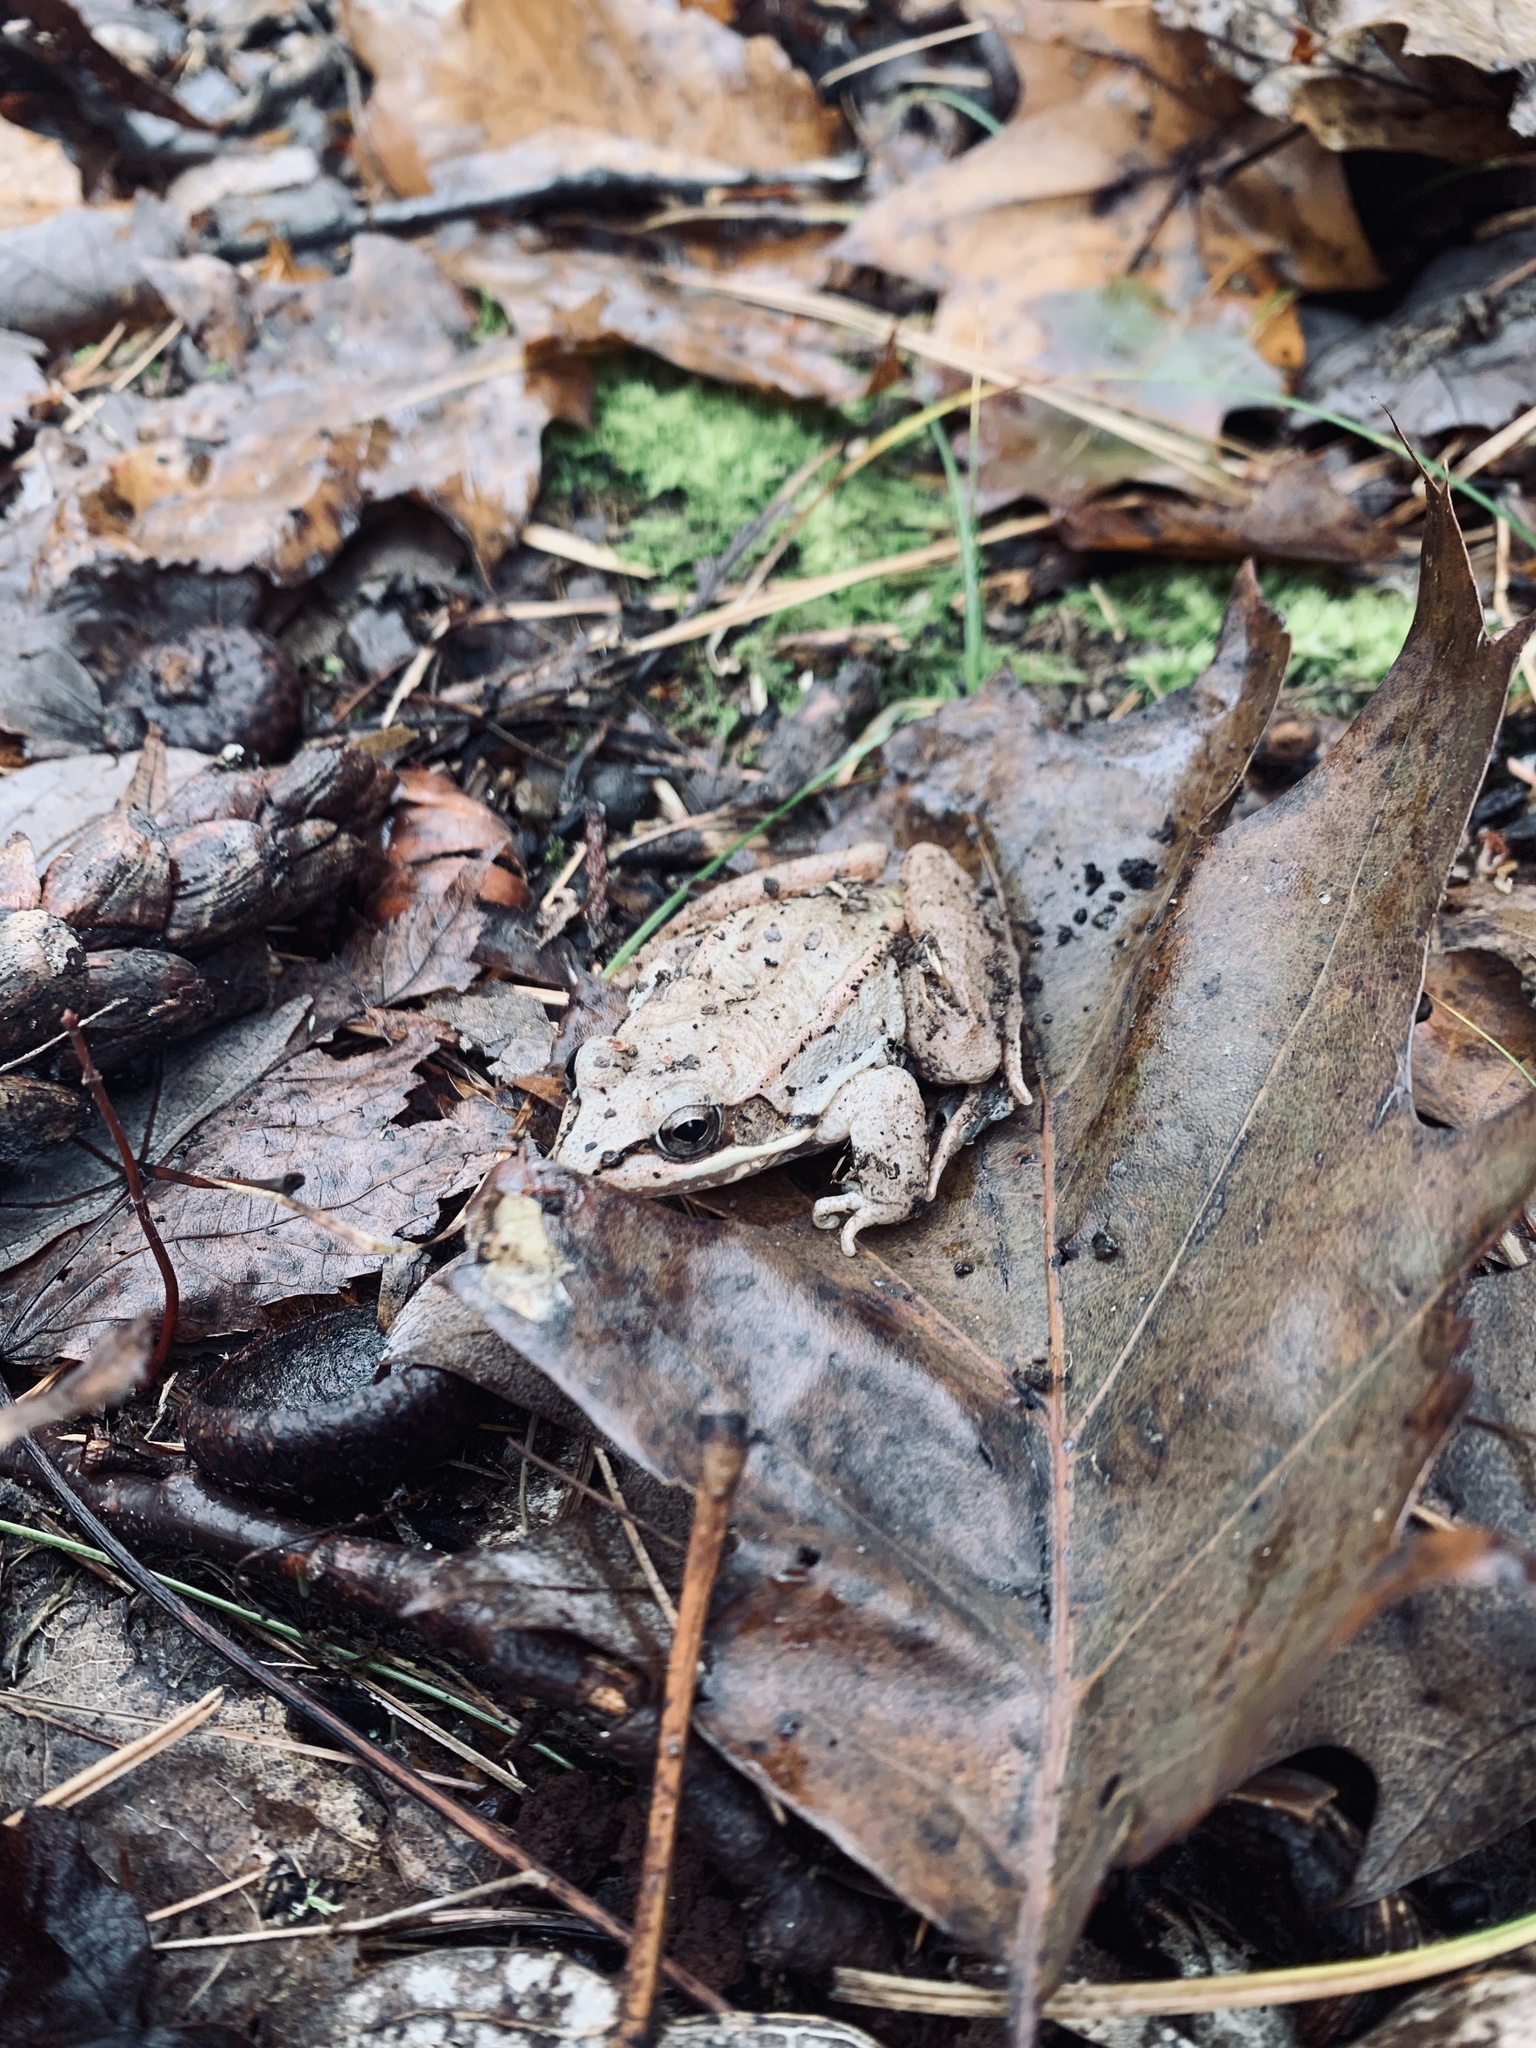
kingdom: Animalia
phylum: Chordata
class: Amphibia
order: Anura
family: Ranidae
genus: Lithobates
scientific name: Lithobates sylvaticus
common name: Wood frog
